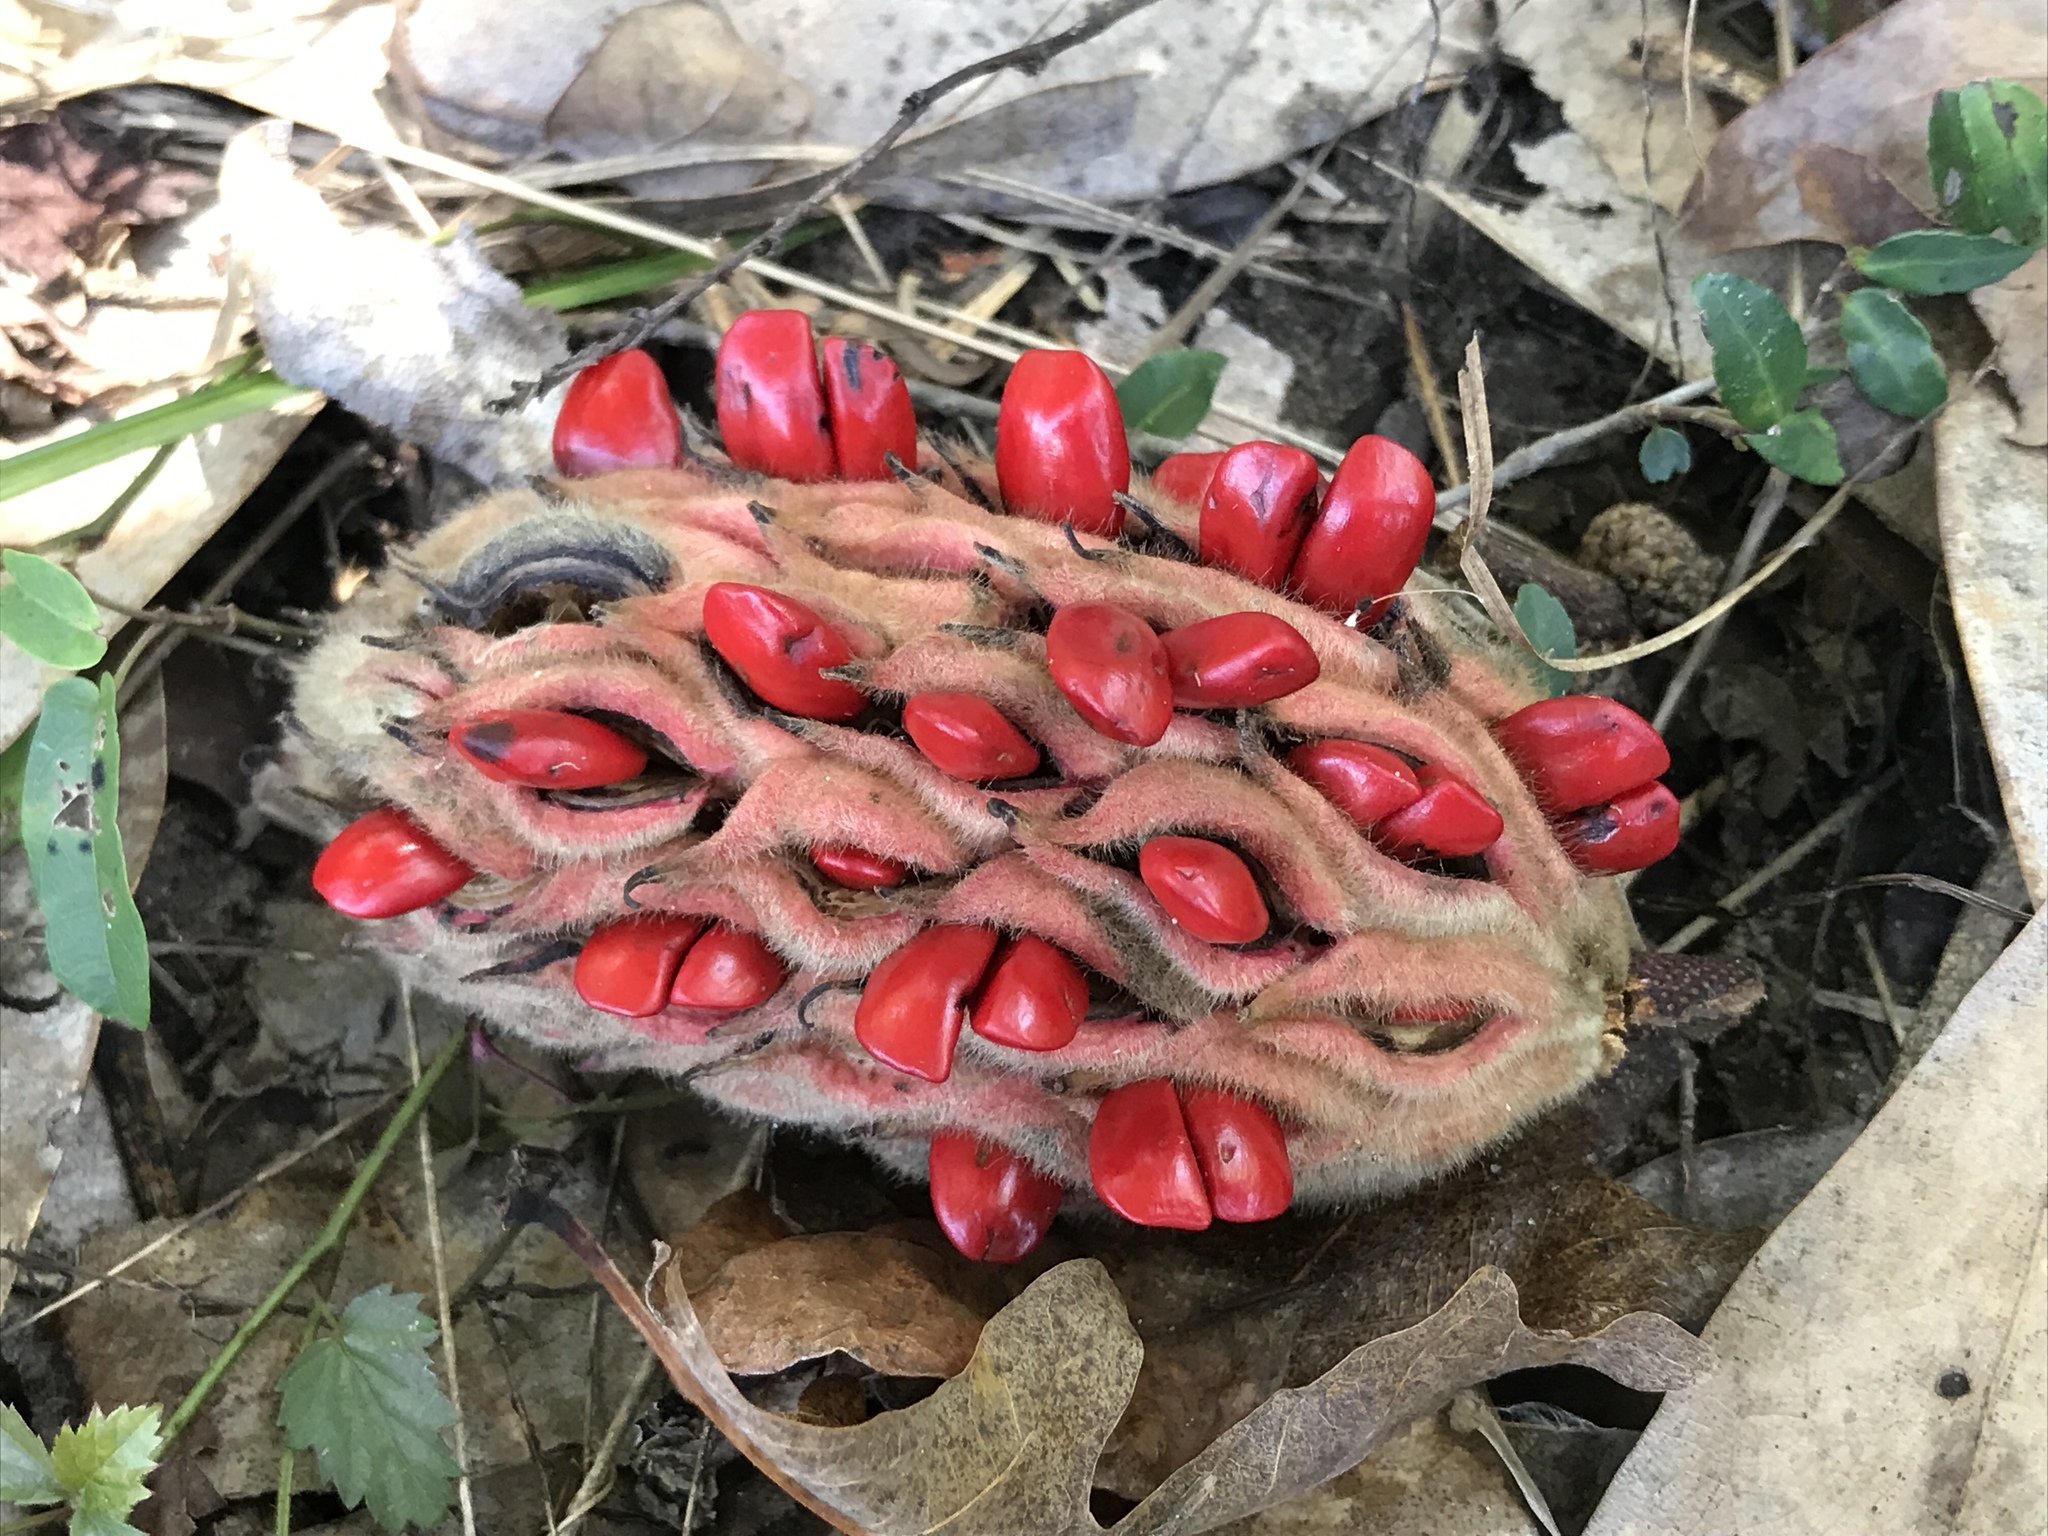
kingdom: Plantae
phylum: Tracheophyta
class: Magnoliopsida
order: Magnoliales
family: Magnoliaceae
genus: Magnolia
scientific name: Magnolia grandiflora
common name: Southern magnolia
